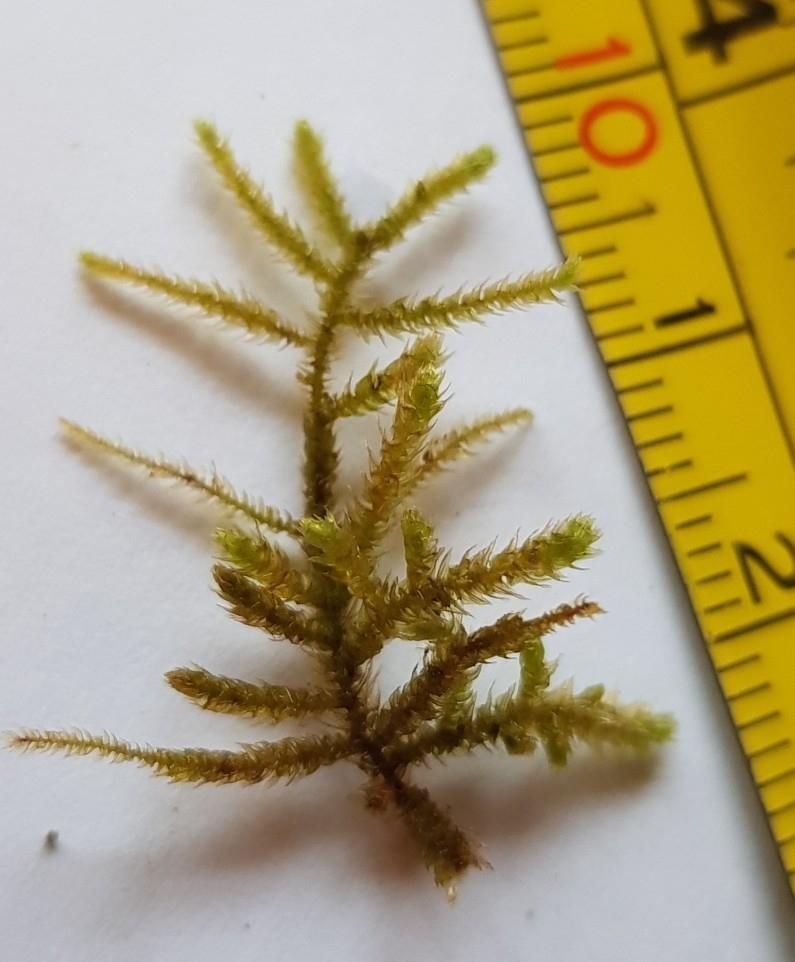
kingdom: Plantae
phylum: Bryophyta
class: Bryopsida
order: Hypnales
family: Brachytheciaceae
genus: Eurhynchium
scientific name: Eurhynchium striatum
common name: Common striated feather-moss
